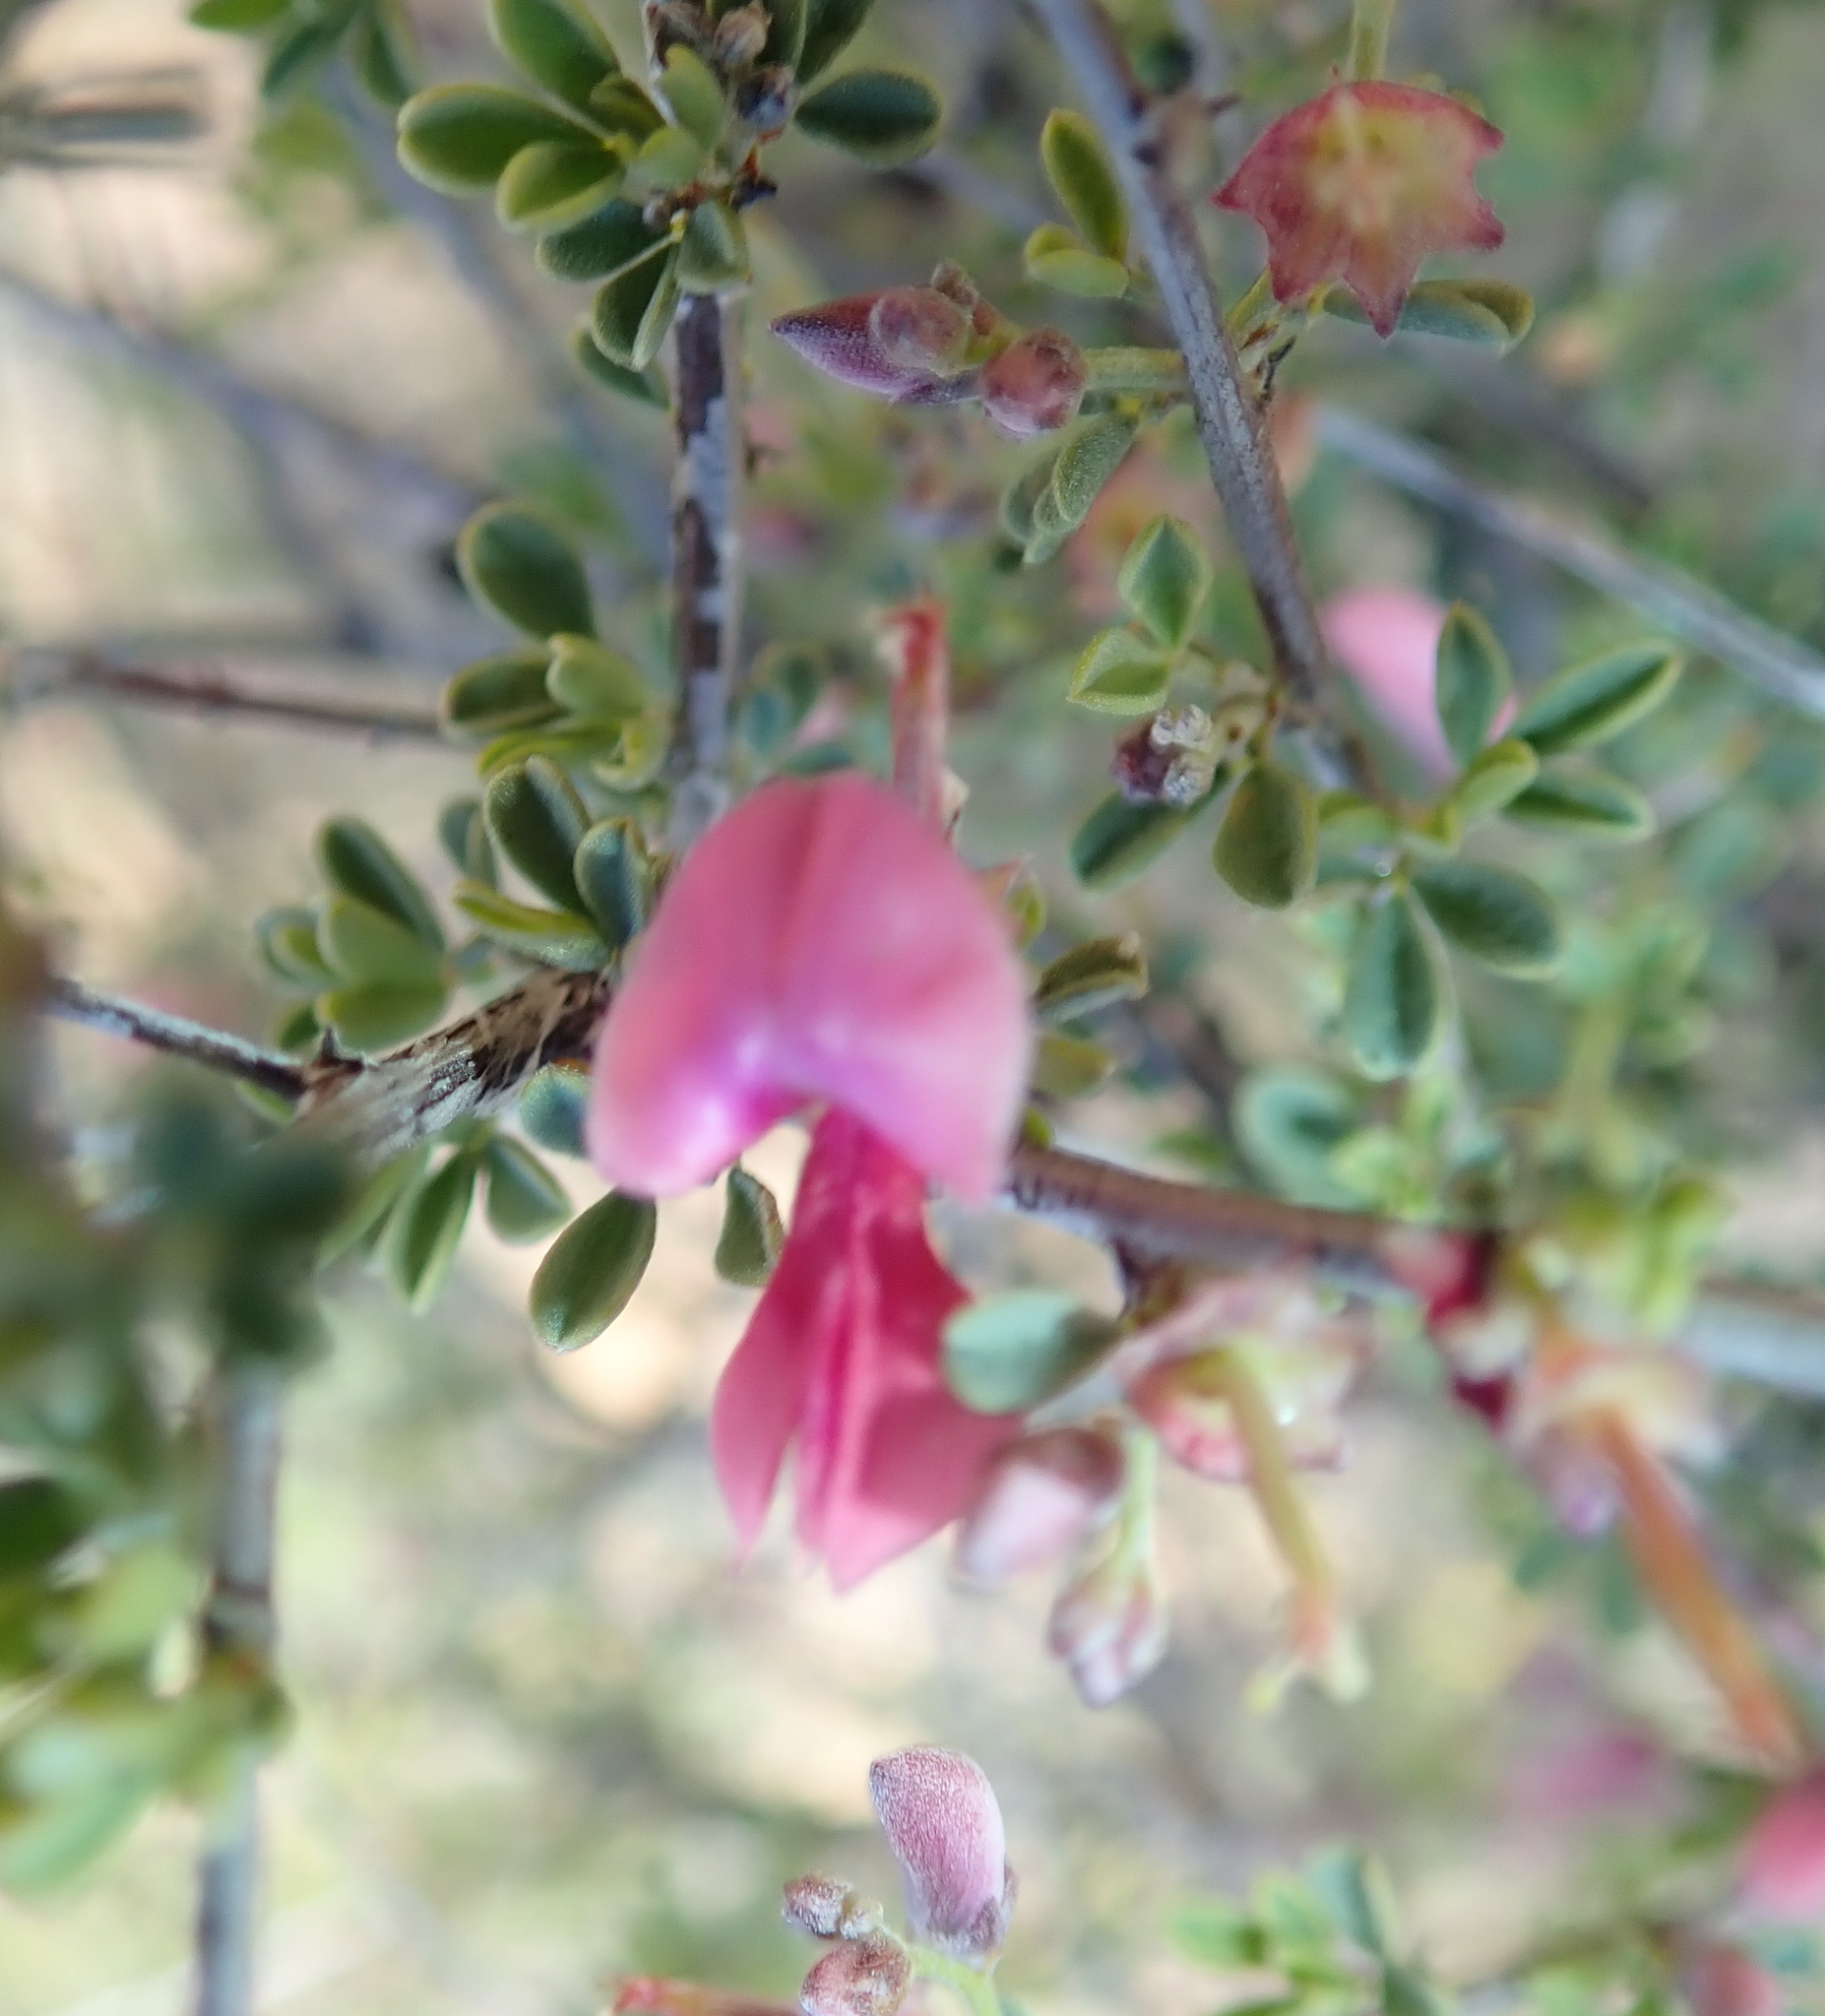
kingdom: Plantae
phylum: Tracheophyta
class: Magnoliopsida
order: Fabales
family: Fabaceae
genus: Indigofera
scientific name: Indigofera spinescens
